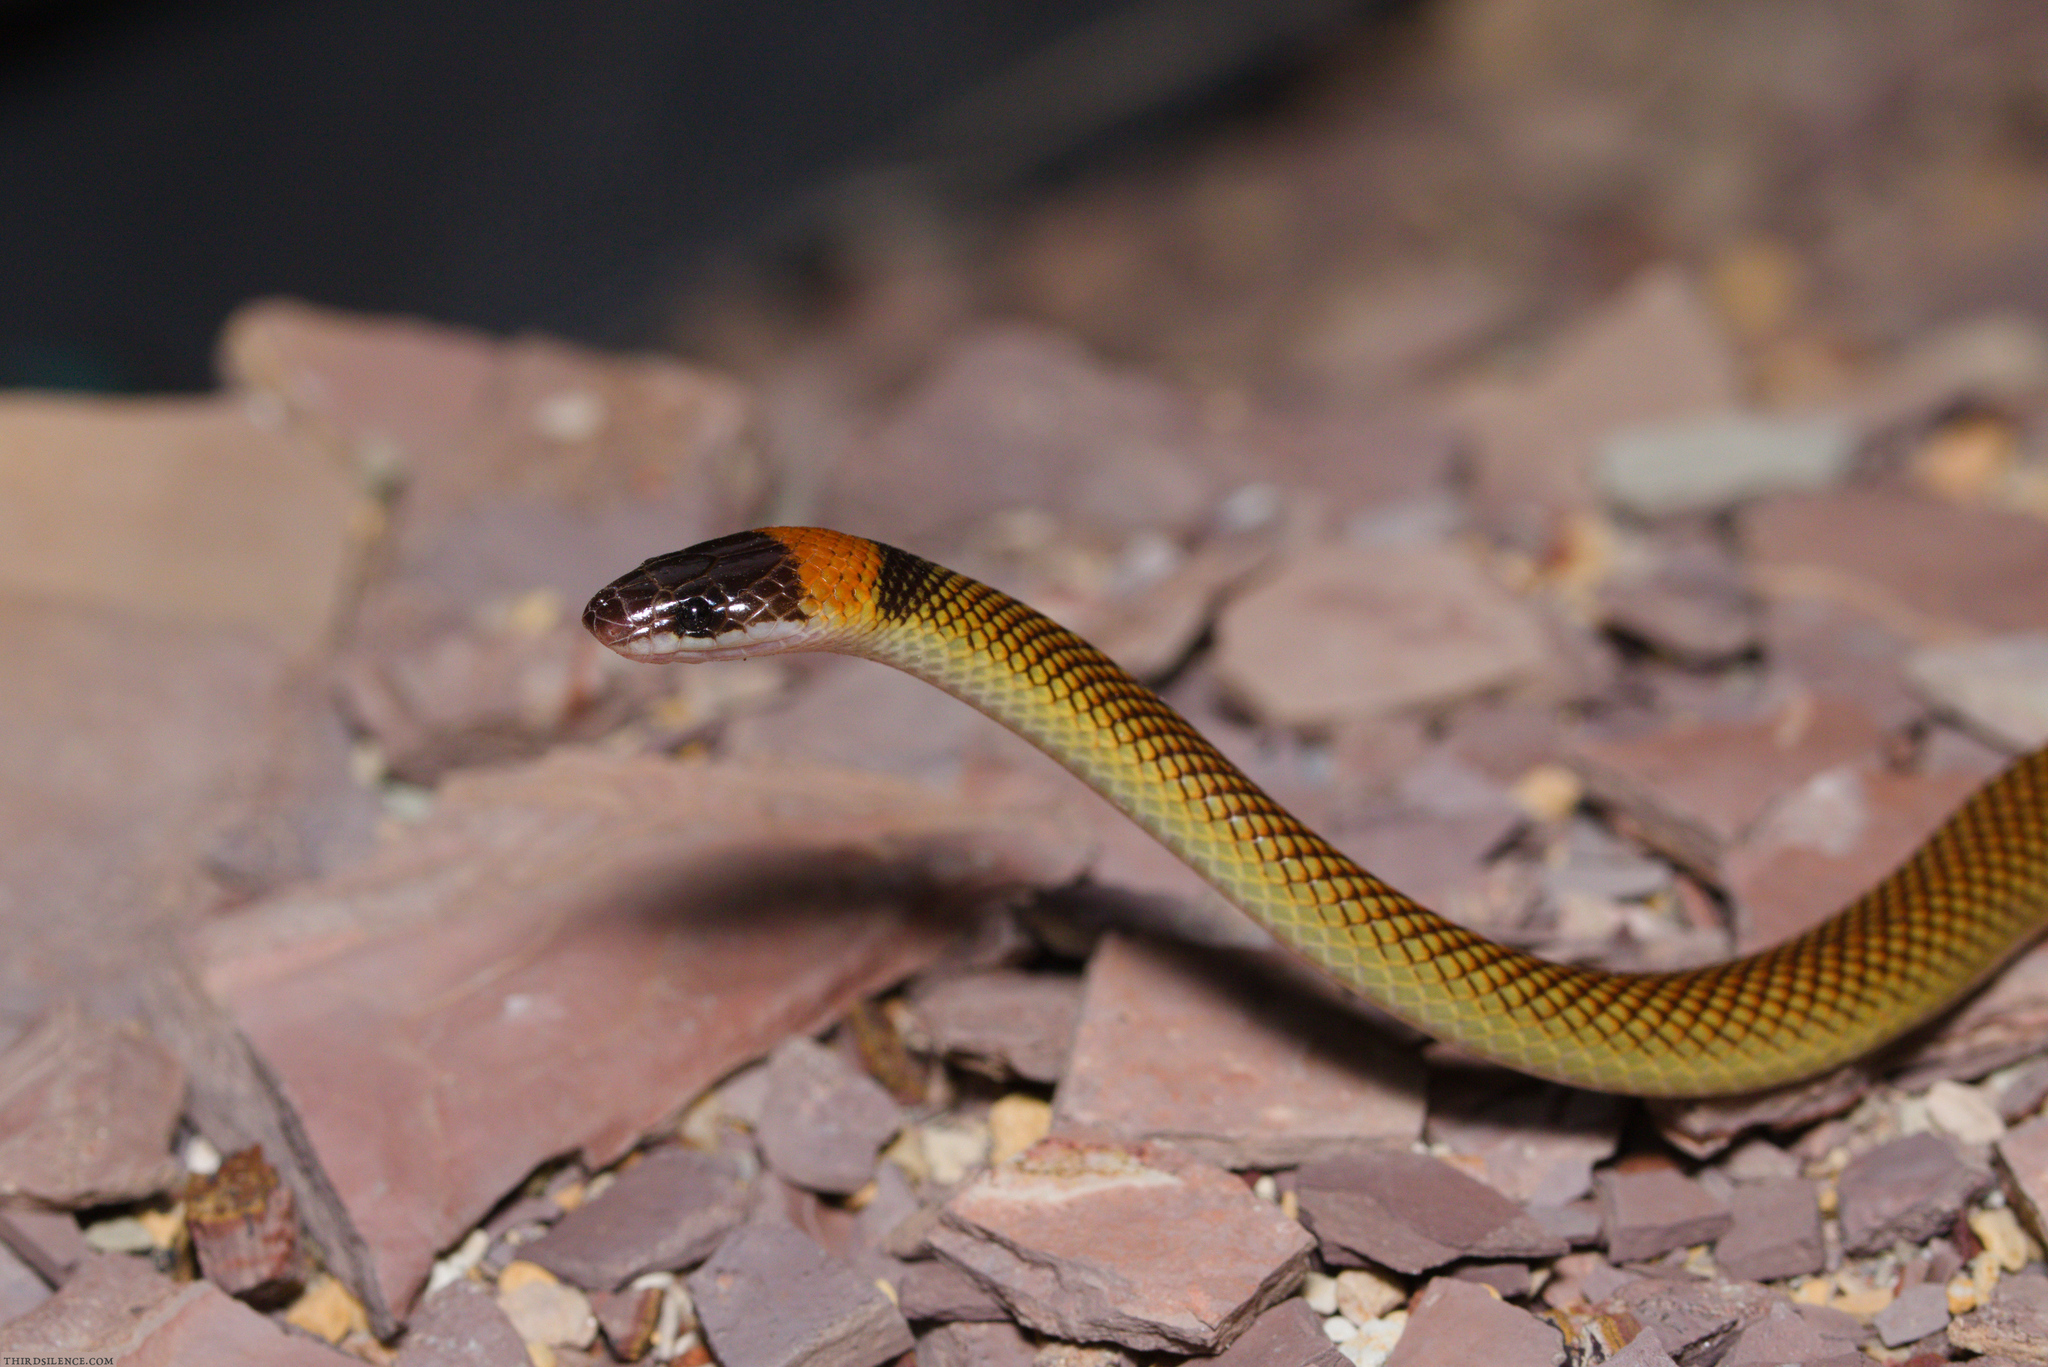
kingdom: Animalia
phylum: Chordata
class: Squamata
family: Elapidae
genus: Furina
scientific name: Furina ornata
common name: Orange-naped snake
